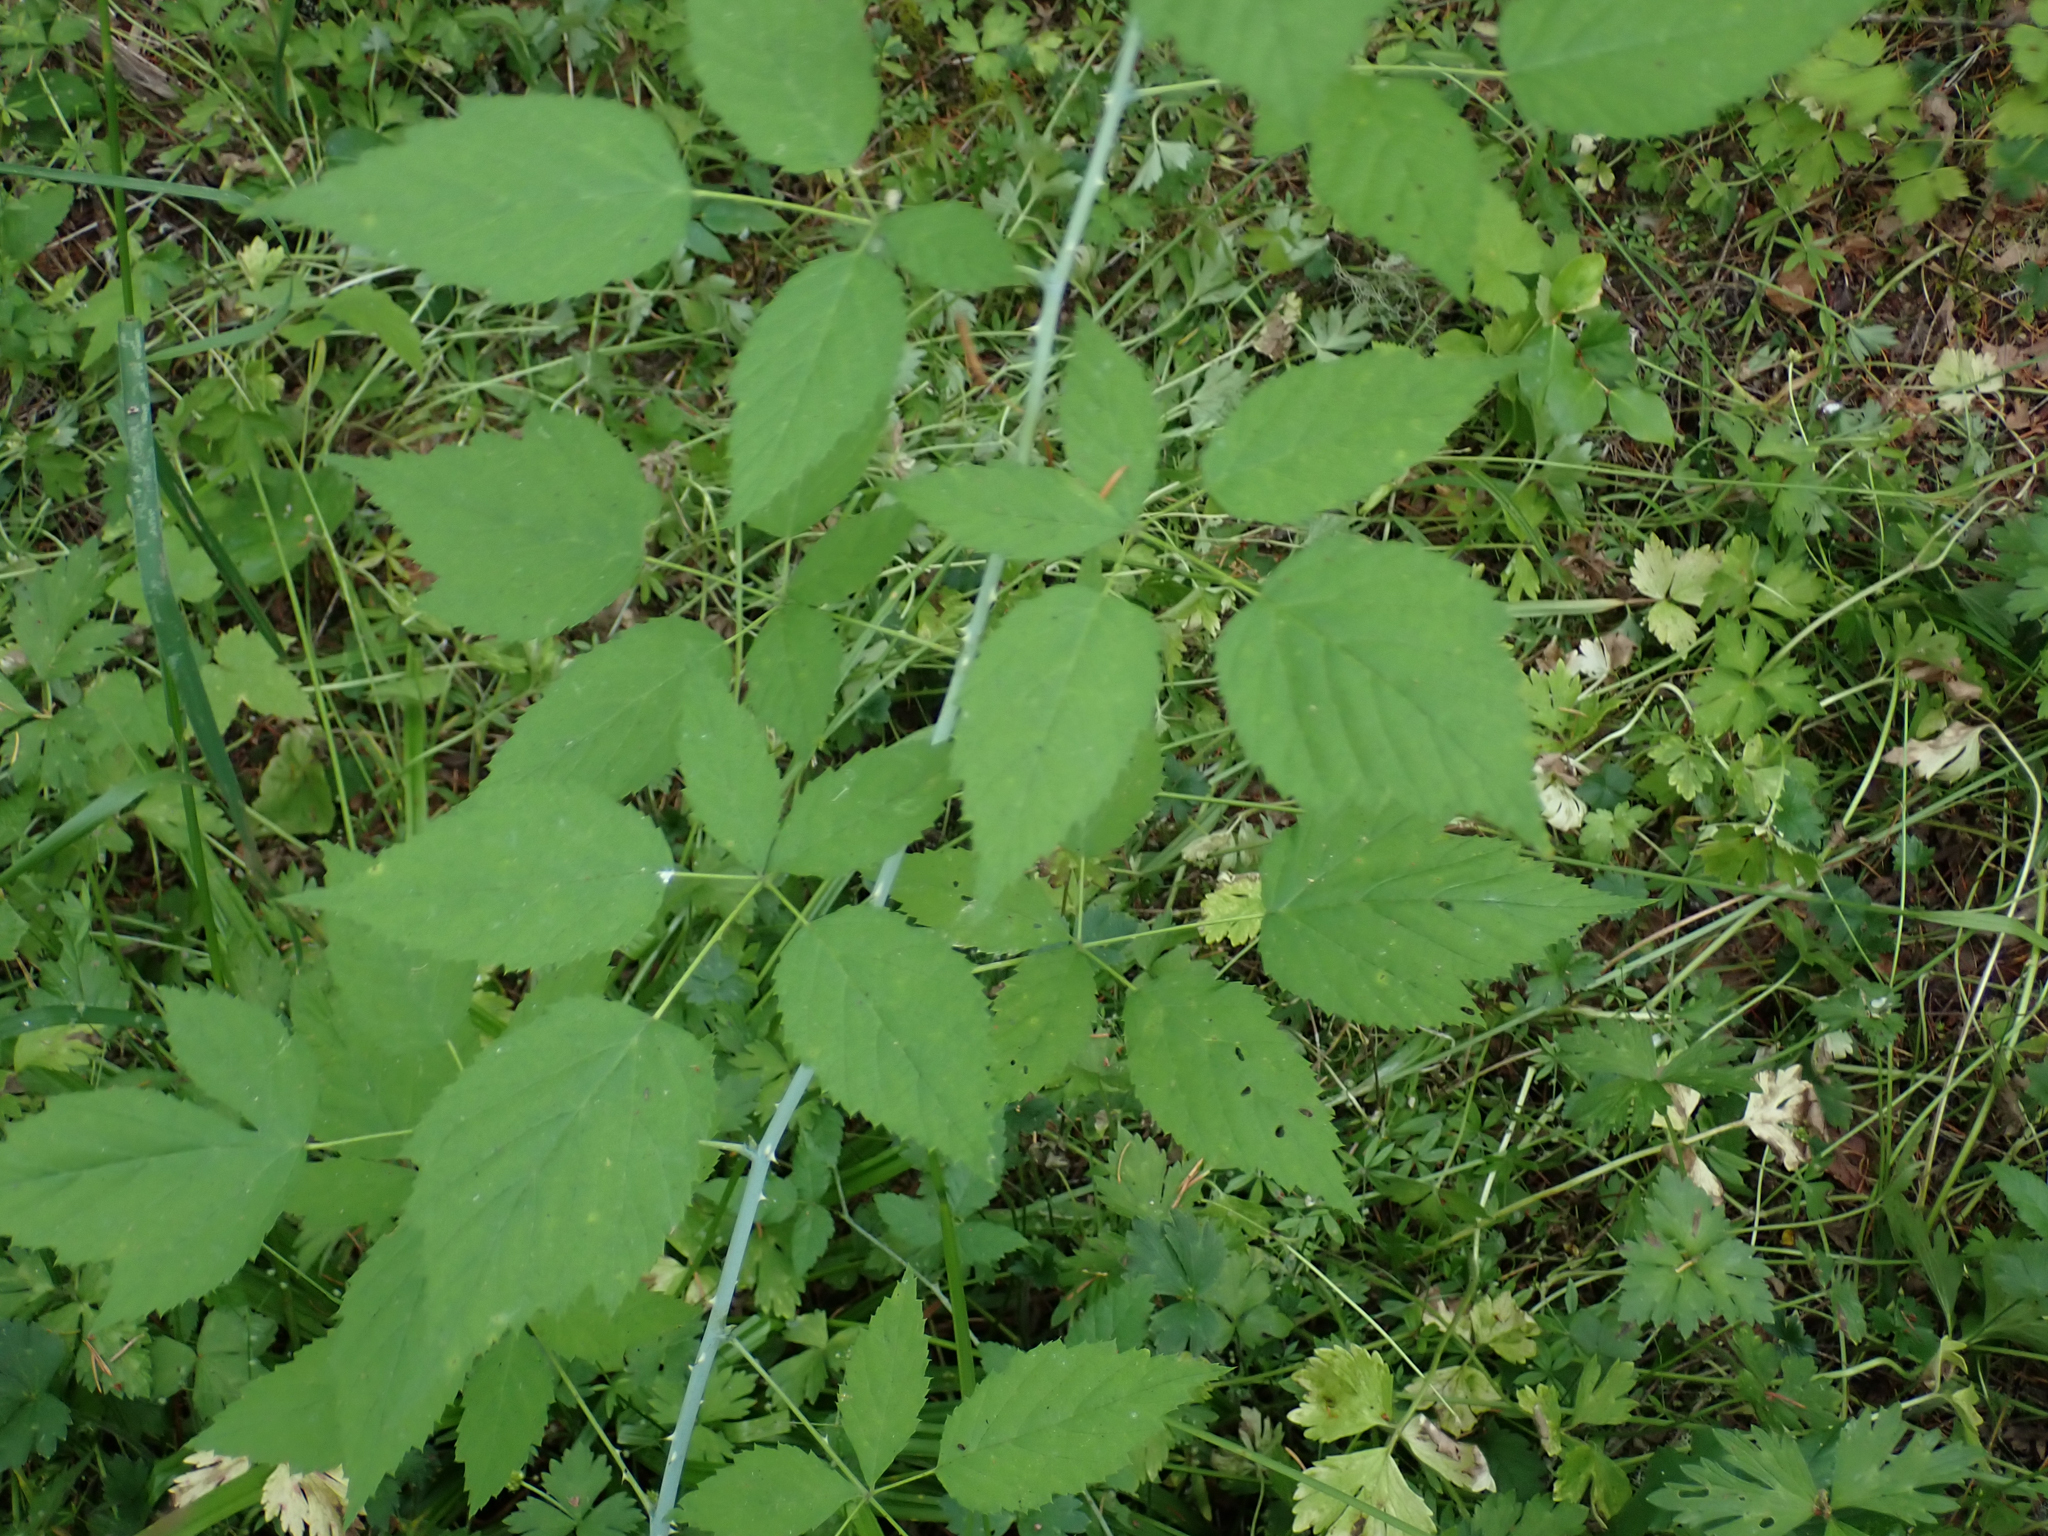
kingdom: Plantae
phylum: Tracheophyta
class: Magnoliopsida
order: Rosales
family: Rosaceae
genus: Rubus
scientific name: Rubus leucodermis
